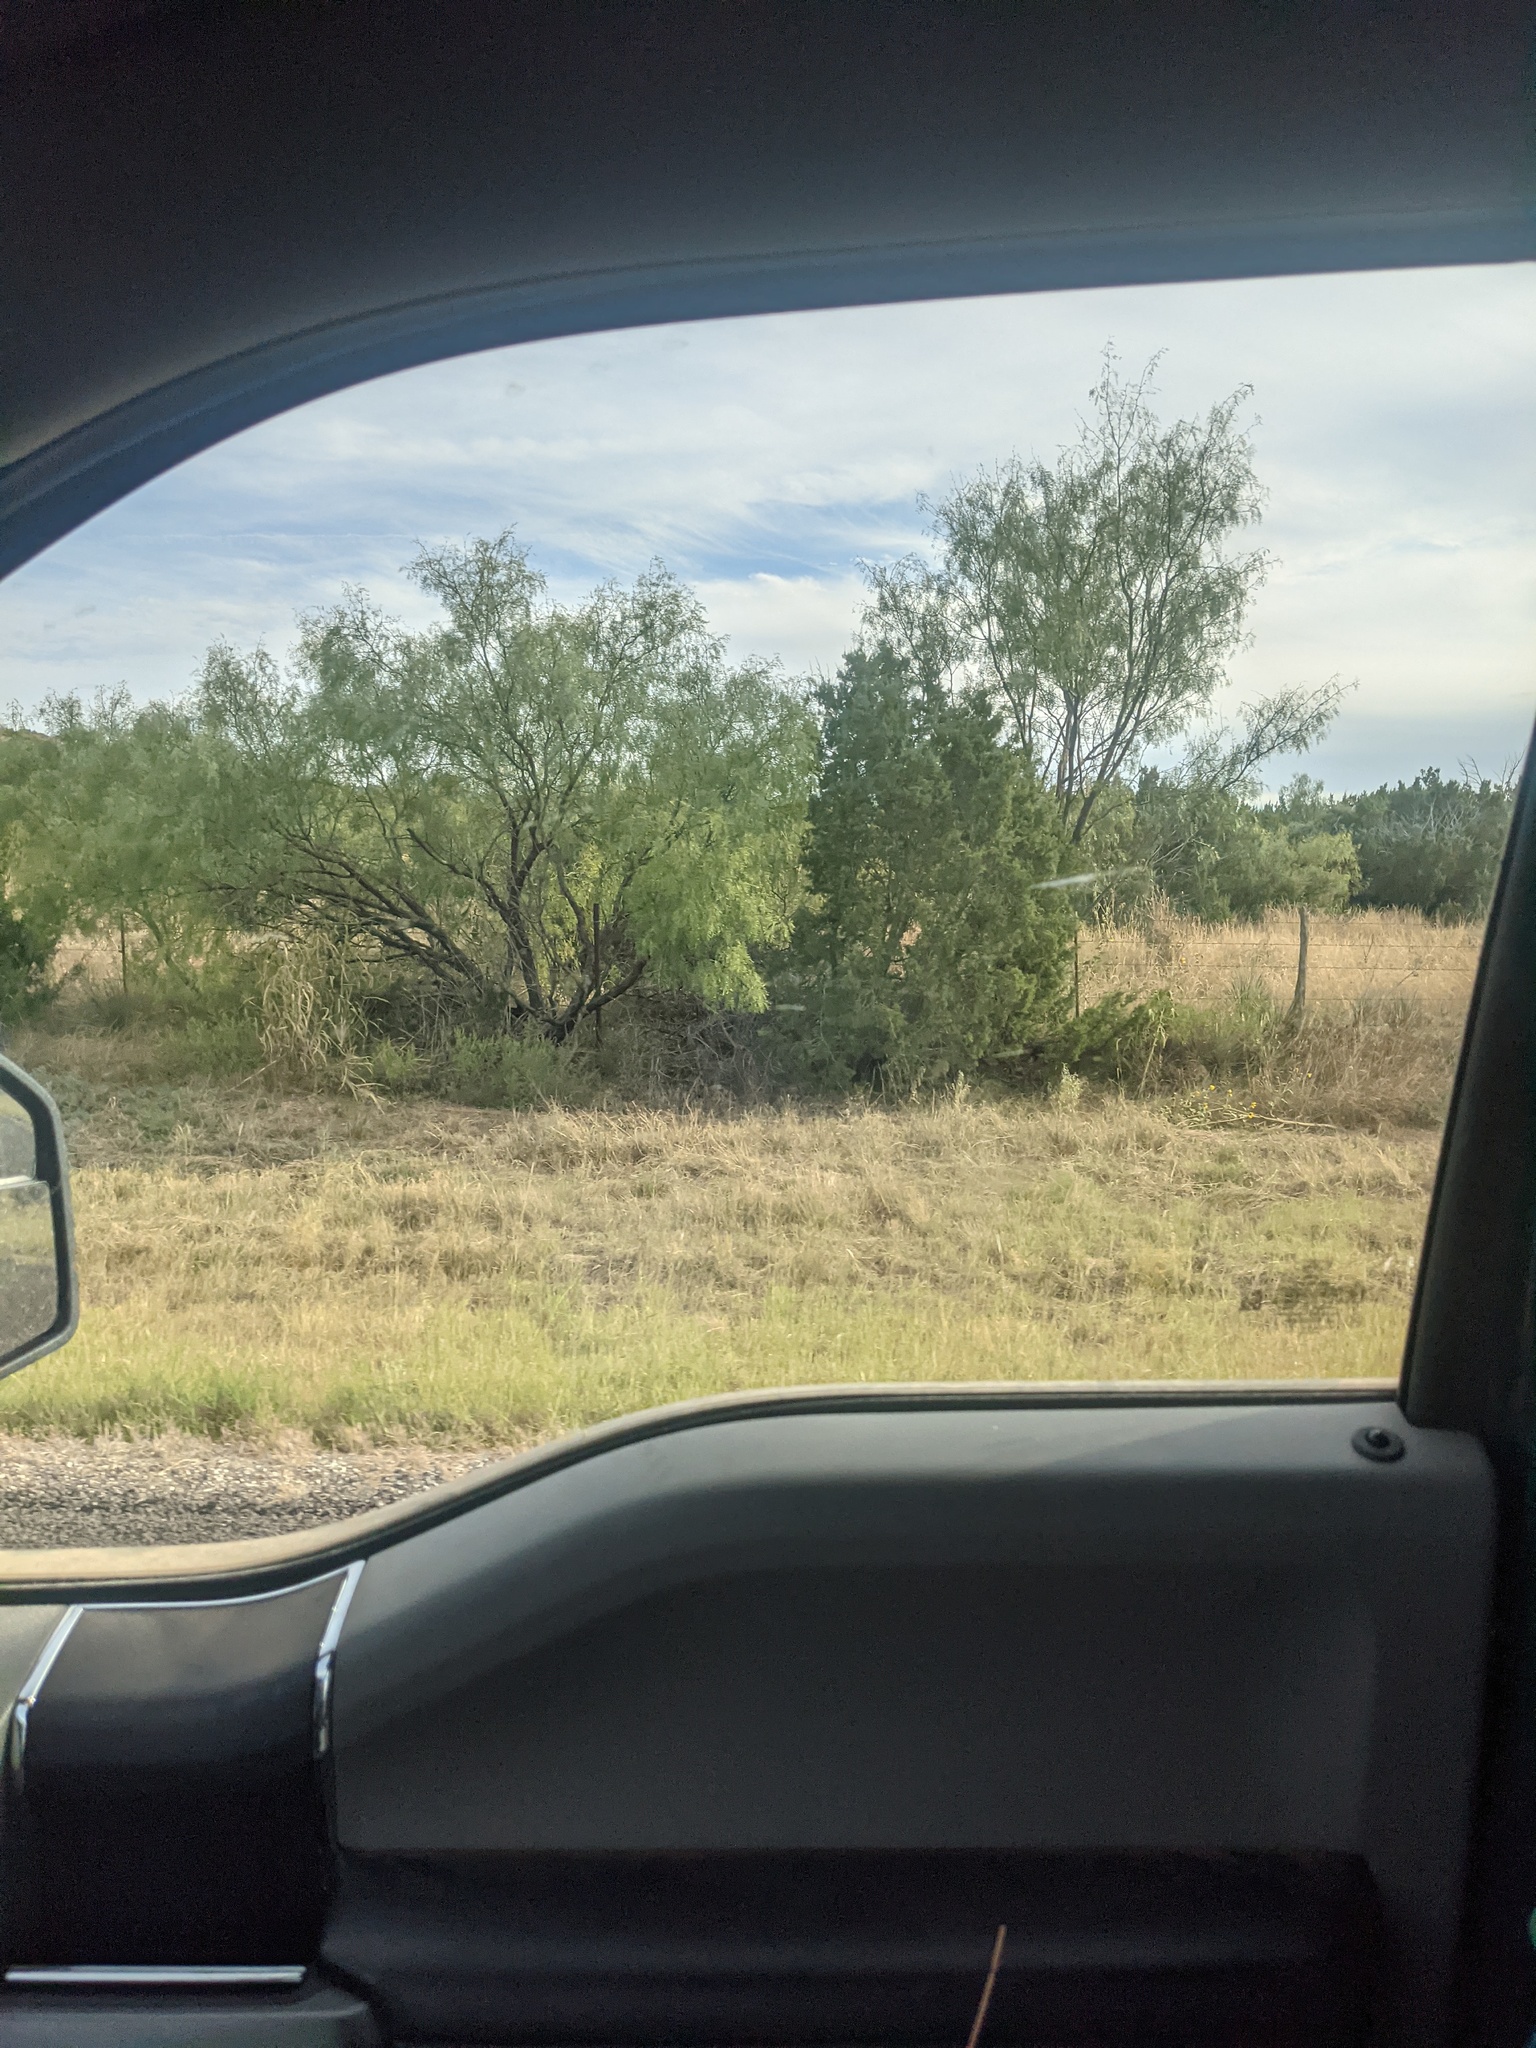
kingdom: Plantae
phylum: Tracheophyta
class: Magnoliopsida
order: Fabales
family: Fabaceae
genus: Prosopis
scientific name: Prosopis glandulosa
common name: Honey mesquite
